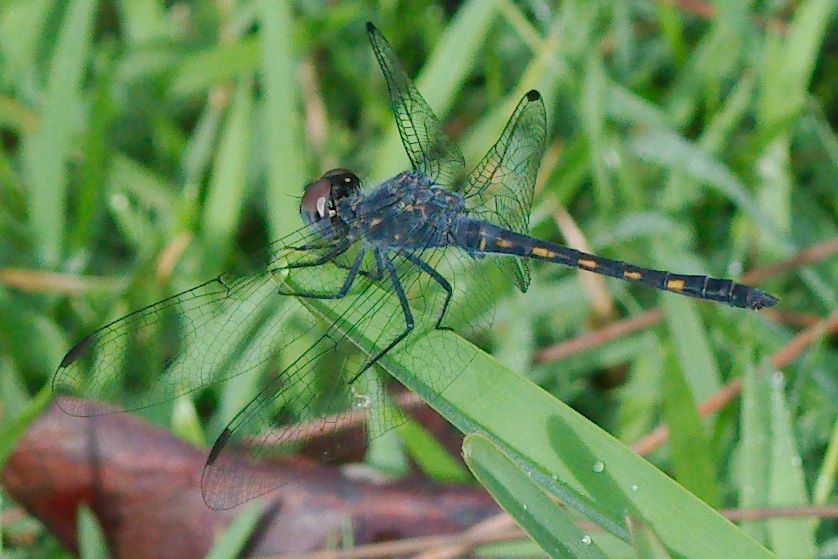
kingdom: Animalia
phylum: Arthropoda
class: Insecta
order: Odonata
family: Libellulidae
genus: Erythrodiplax
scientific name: Erythrodiplax berenice
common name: Seaside dragonlet
